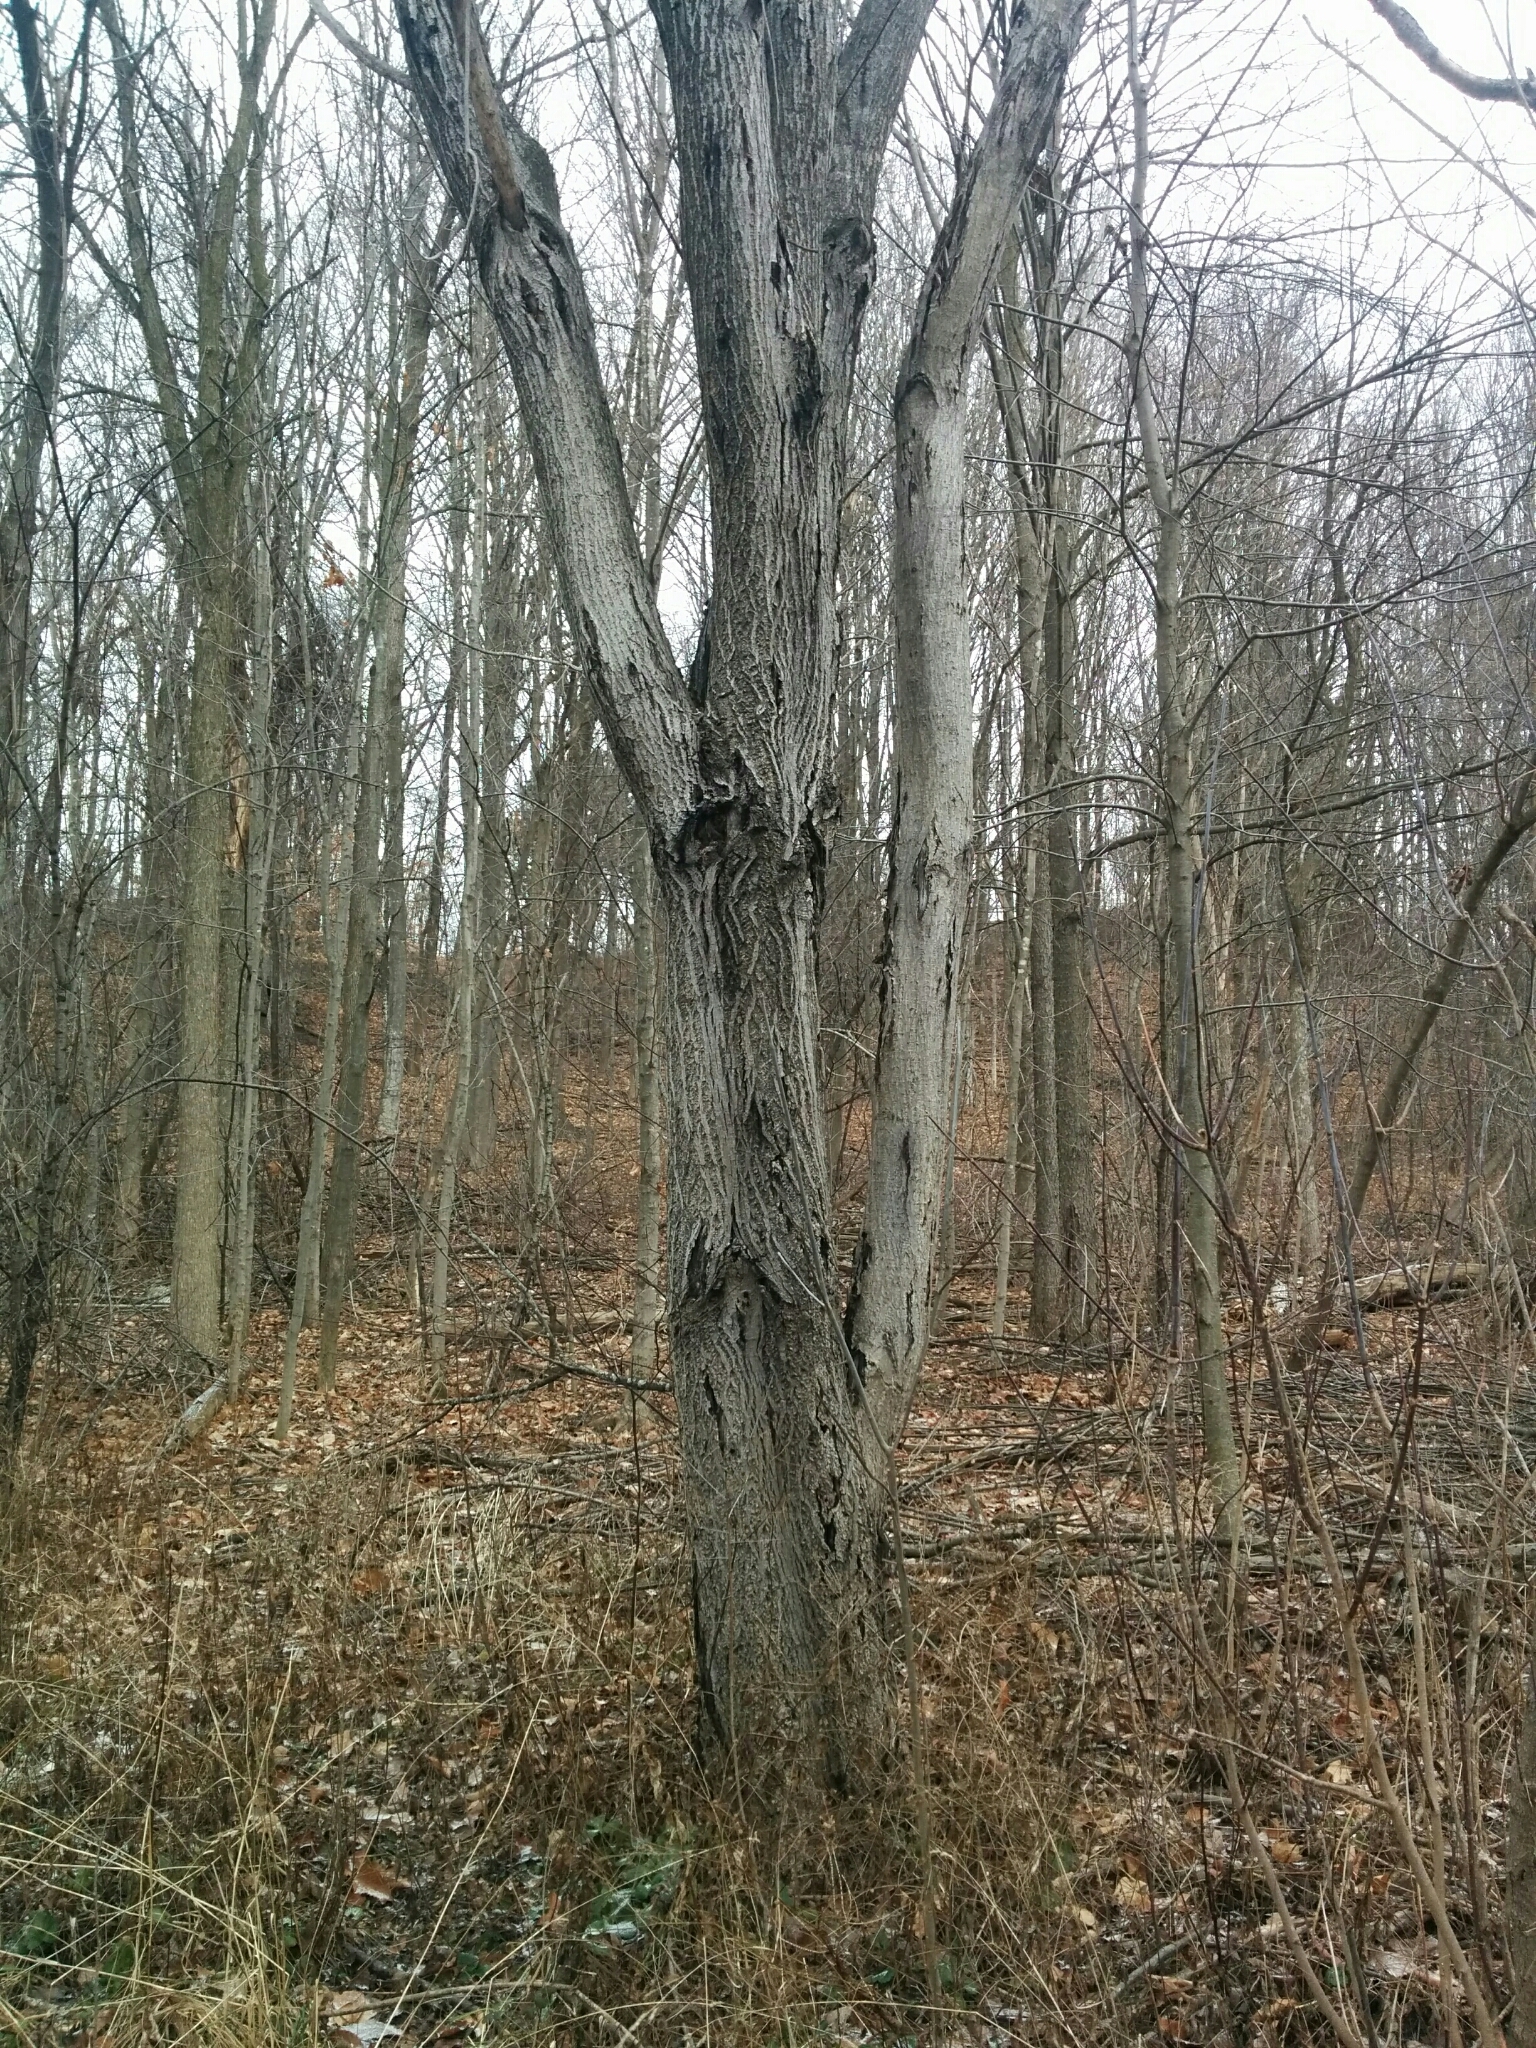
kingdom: Plantae
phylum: Tracheophyta
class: Magnoliopsida
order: Fagales
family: Juglandaceae
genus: Juglans
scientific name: Juglans cinerea
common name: Butternut
